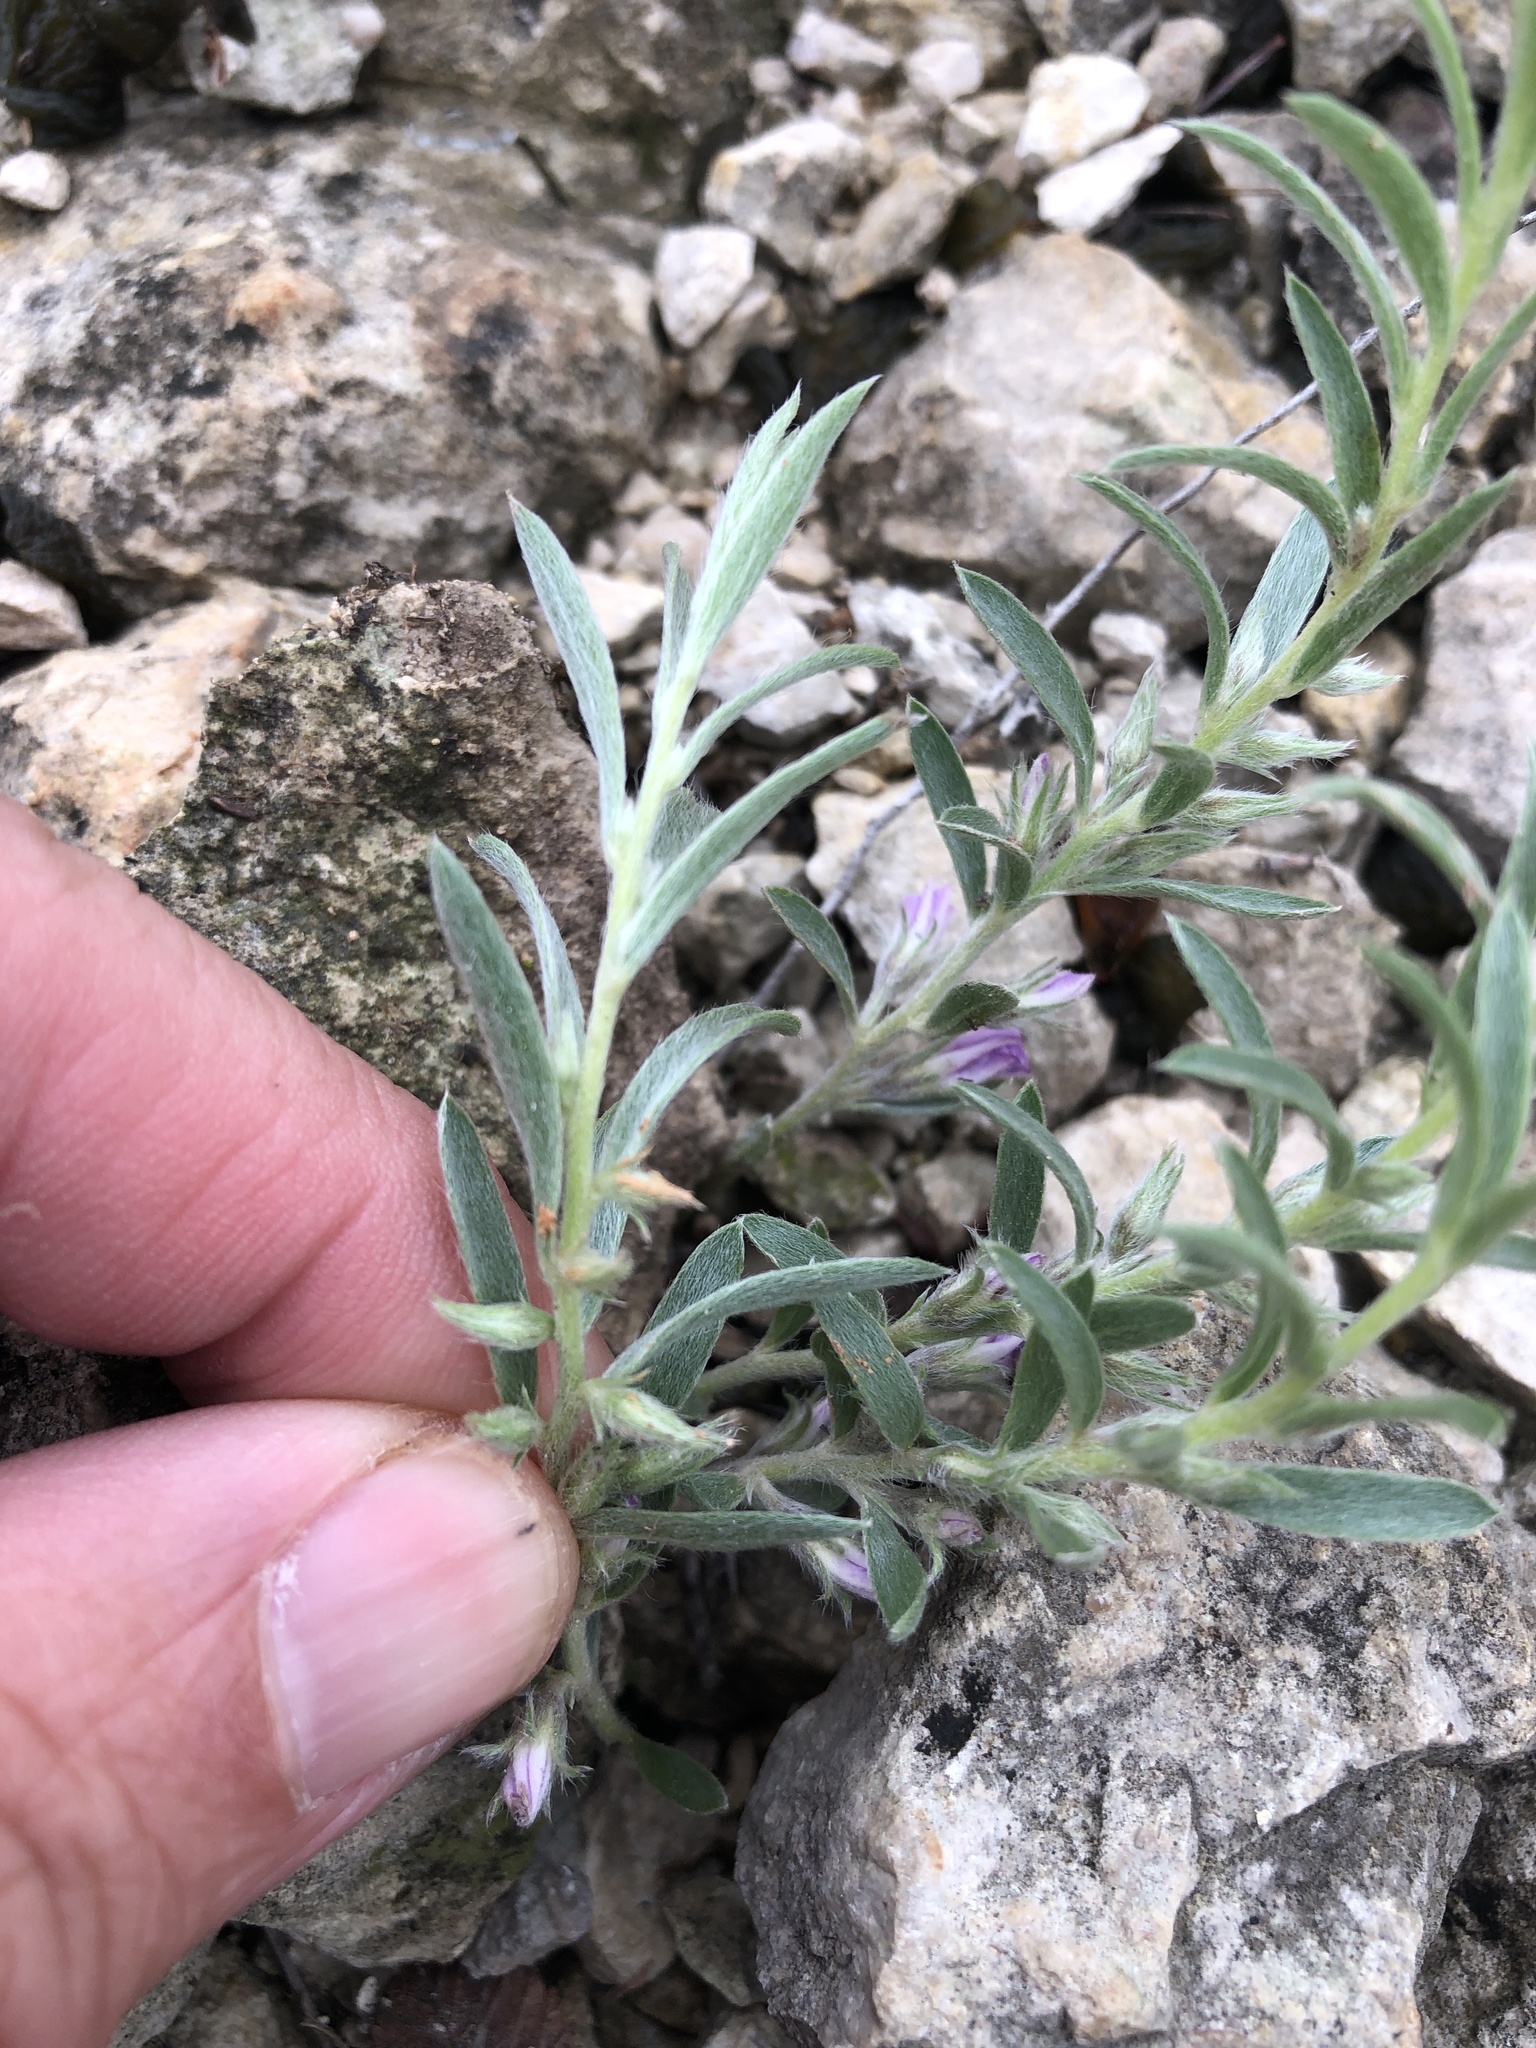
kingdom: Plantae
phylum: Tracheophyta
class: Magnoliopsida
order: Solanales
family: Convolvulaceae
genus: Evolvulus
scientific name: Evolvulus nuttallianus
